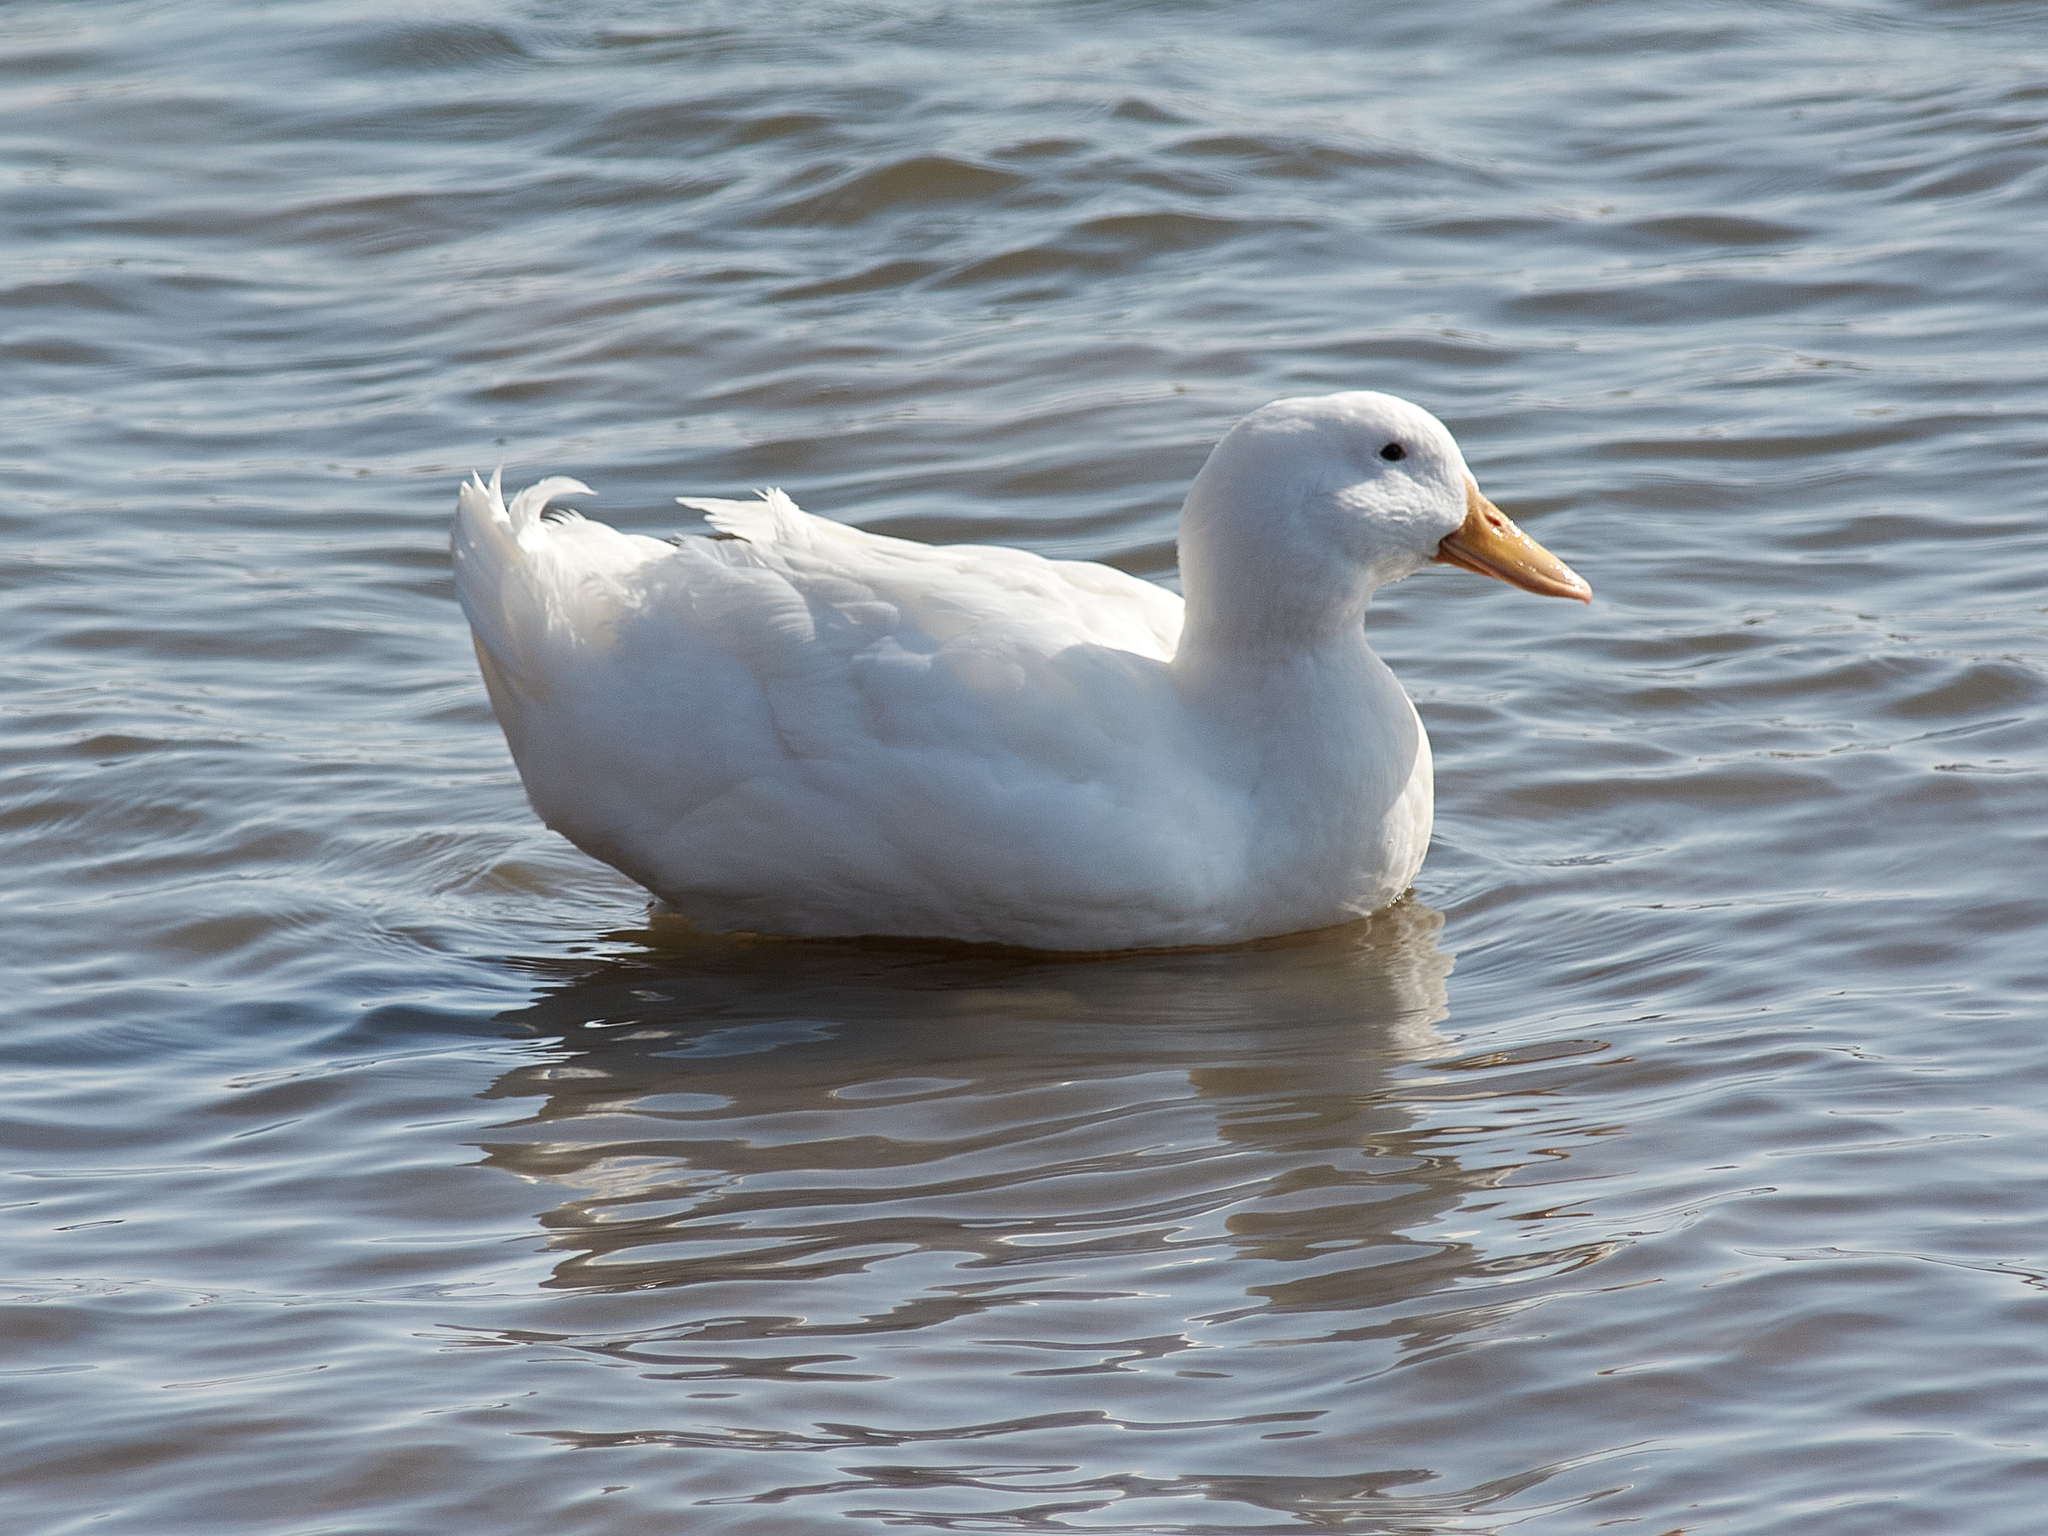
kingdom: Animalia
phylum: Chordata
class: Aves
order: Anseriformes
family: Anatidae
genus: Anas
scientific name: Anas platyrhynchos
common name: Mallard
